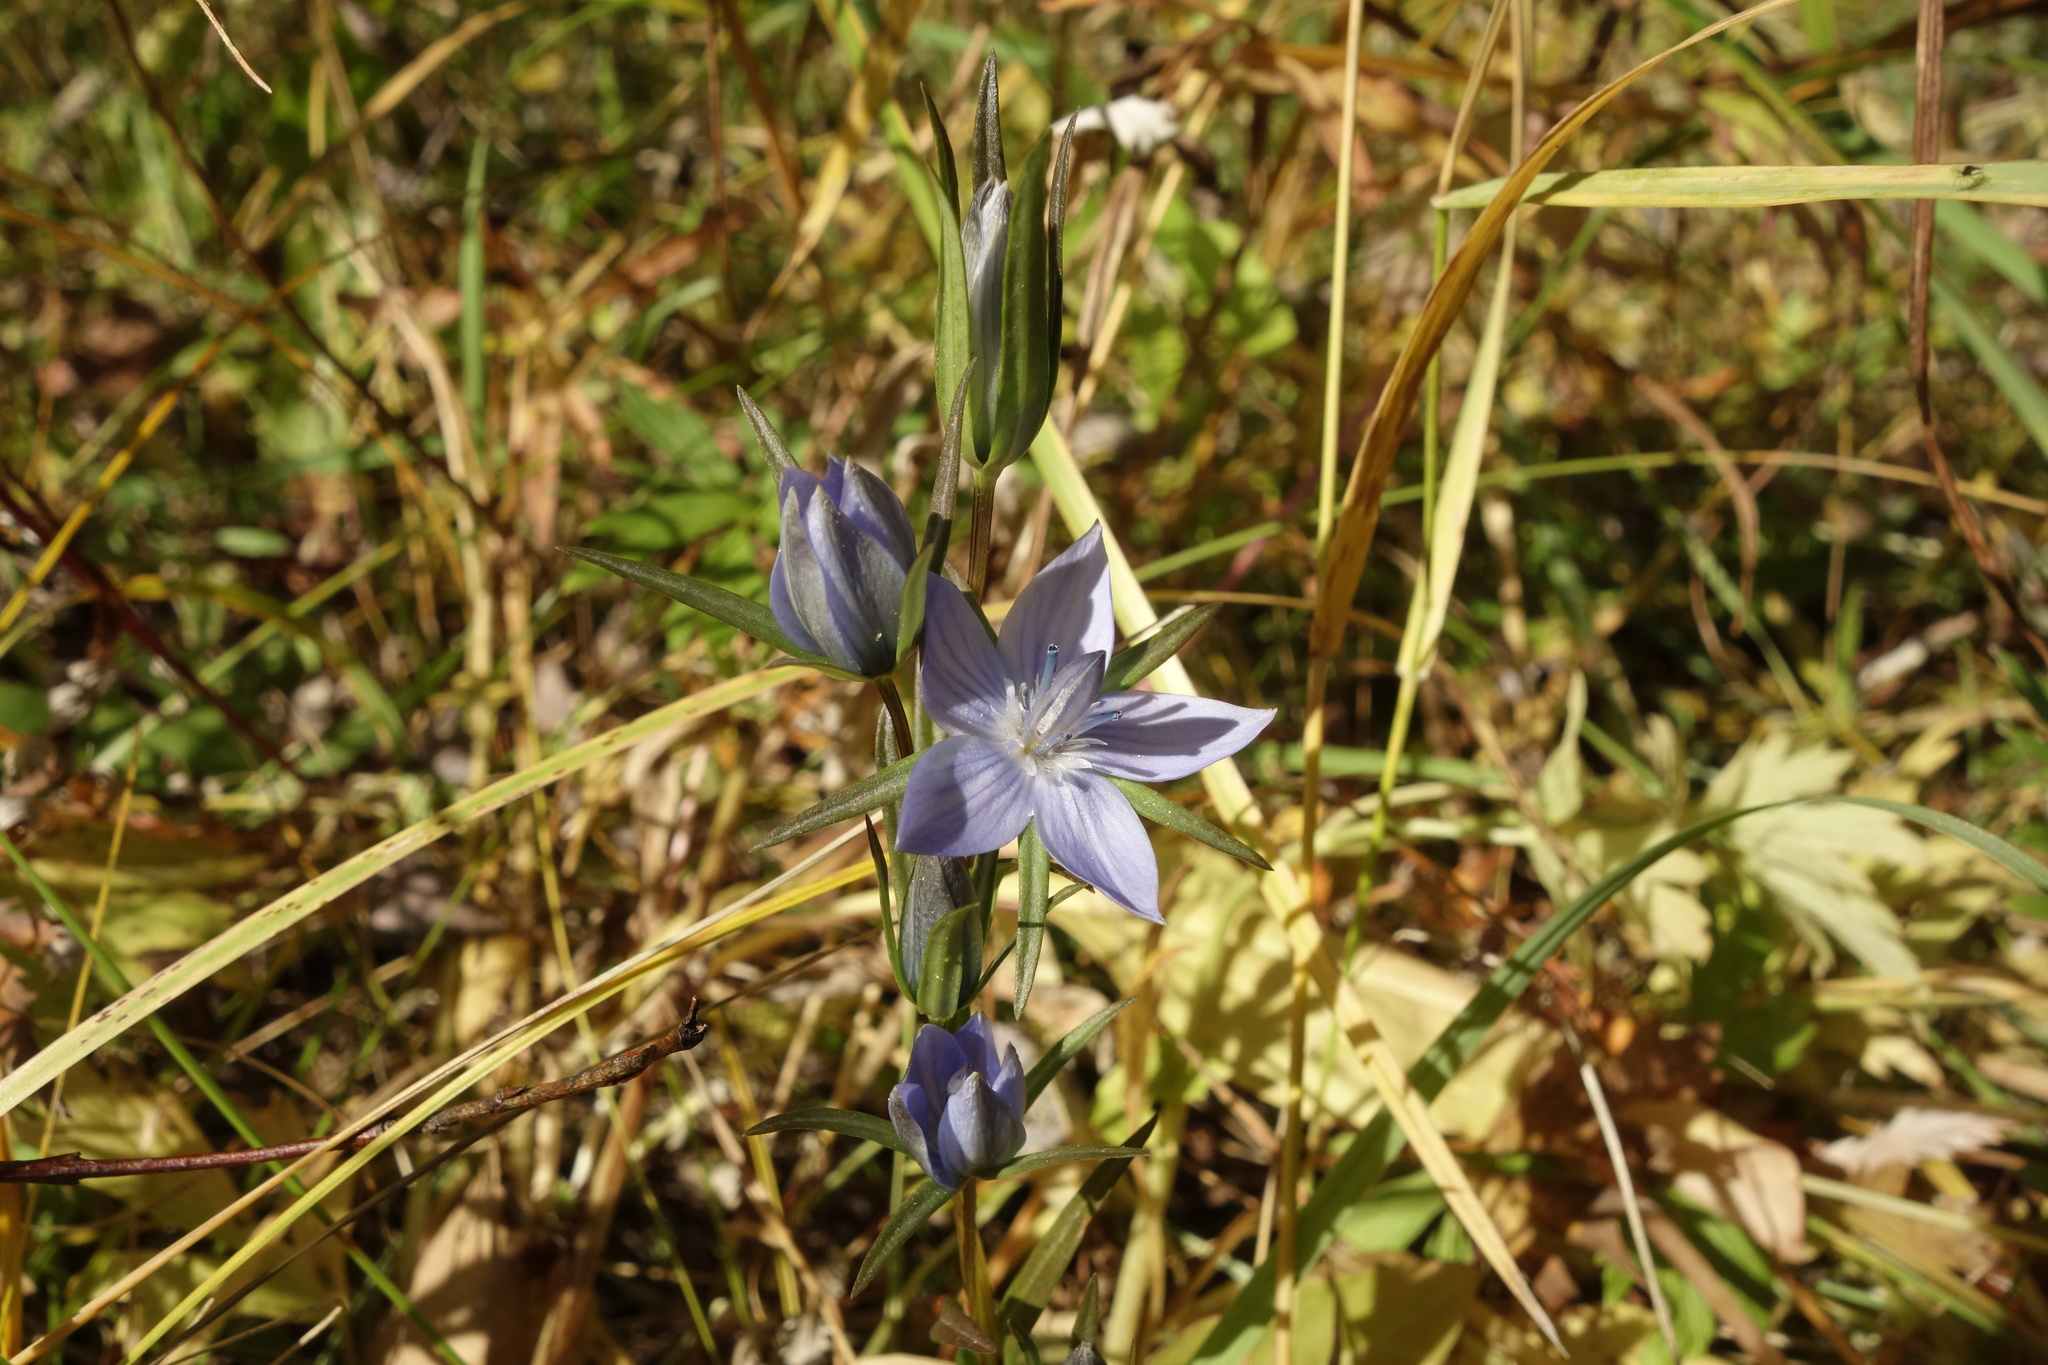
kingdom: Plantae
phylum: Tracheophyta
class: Magnoliopsida
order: Gentianales
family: Gentianaceae
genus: Lomatogonium
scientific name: Lomatogonium rotatum
